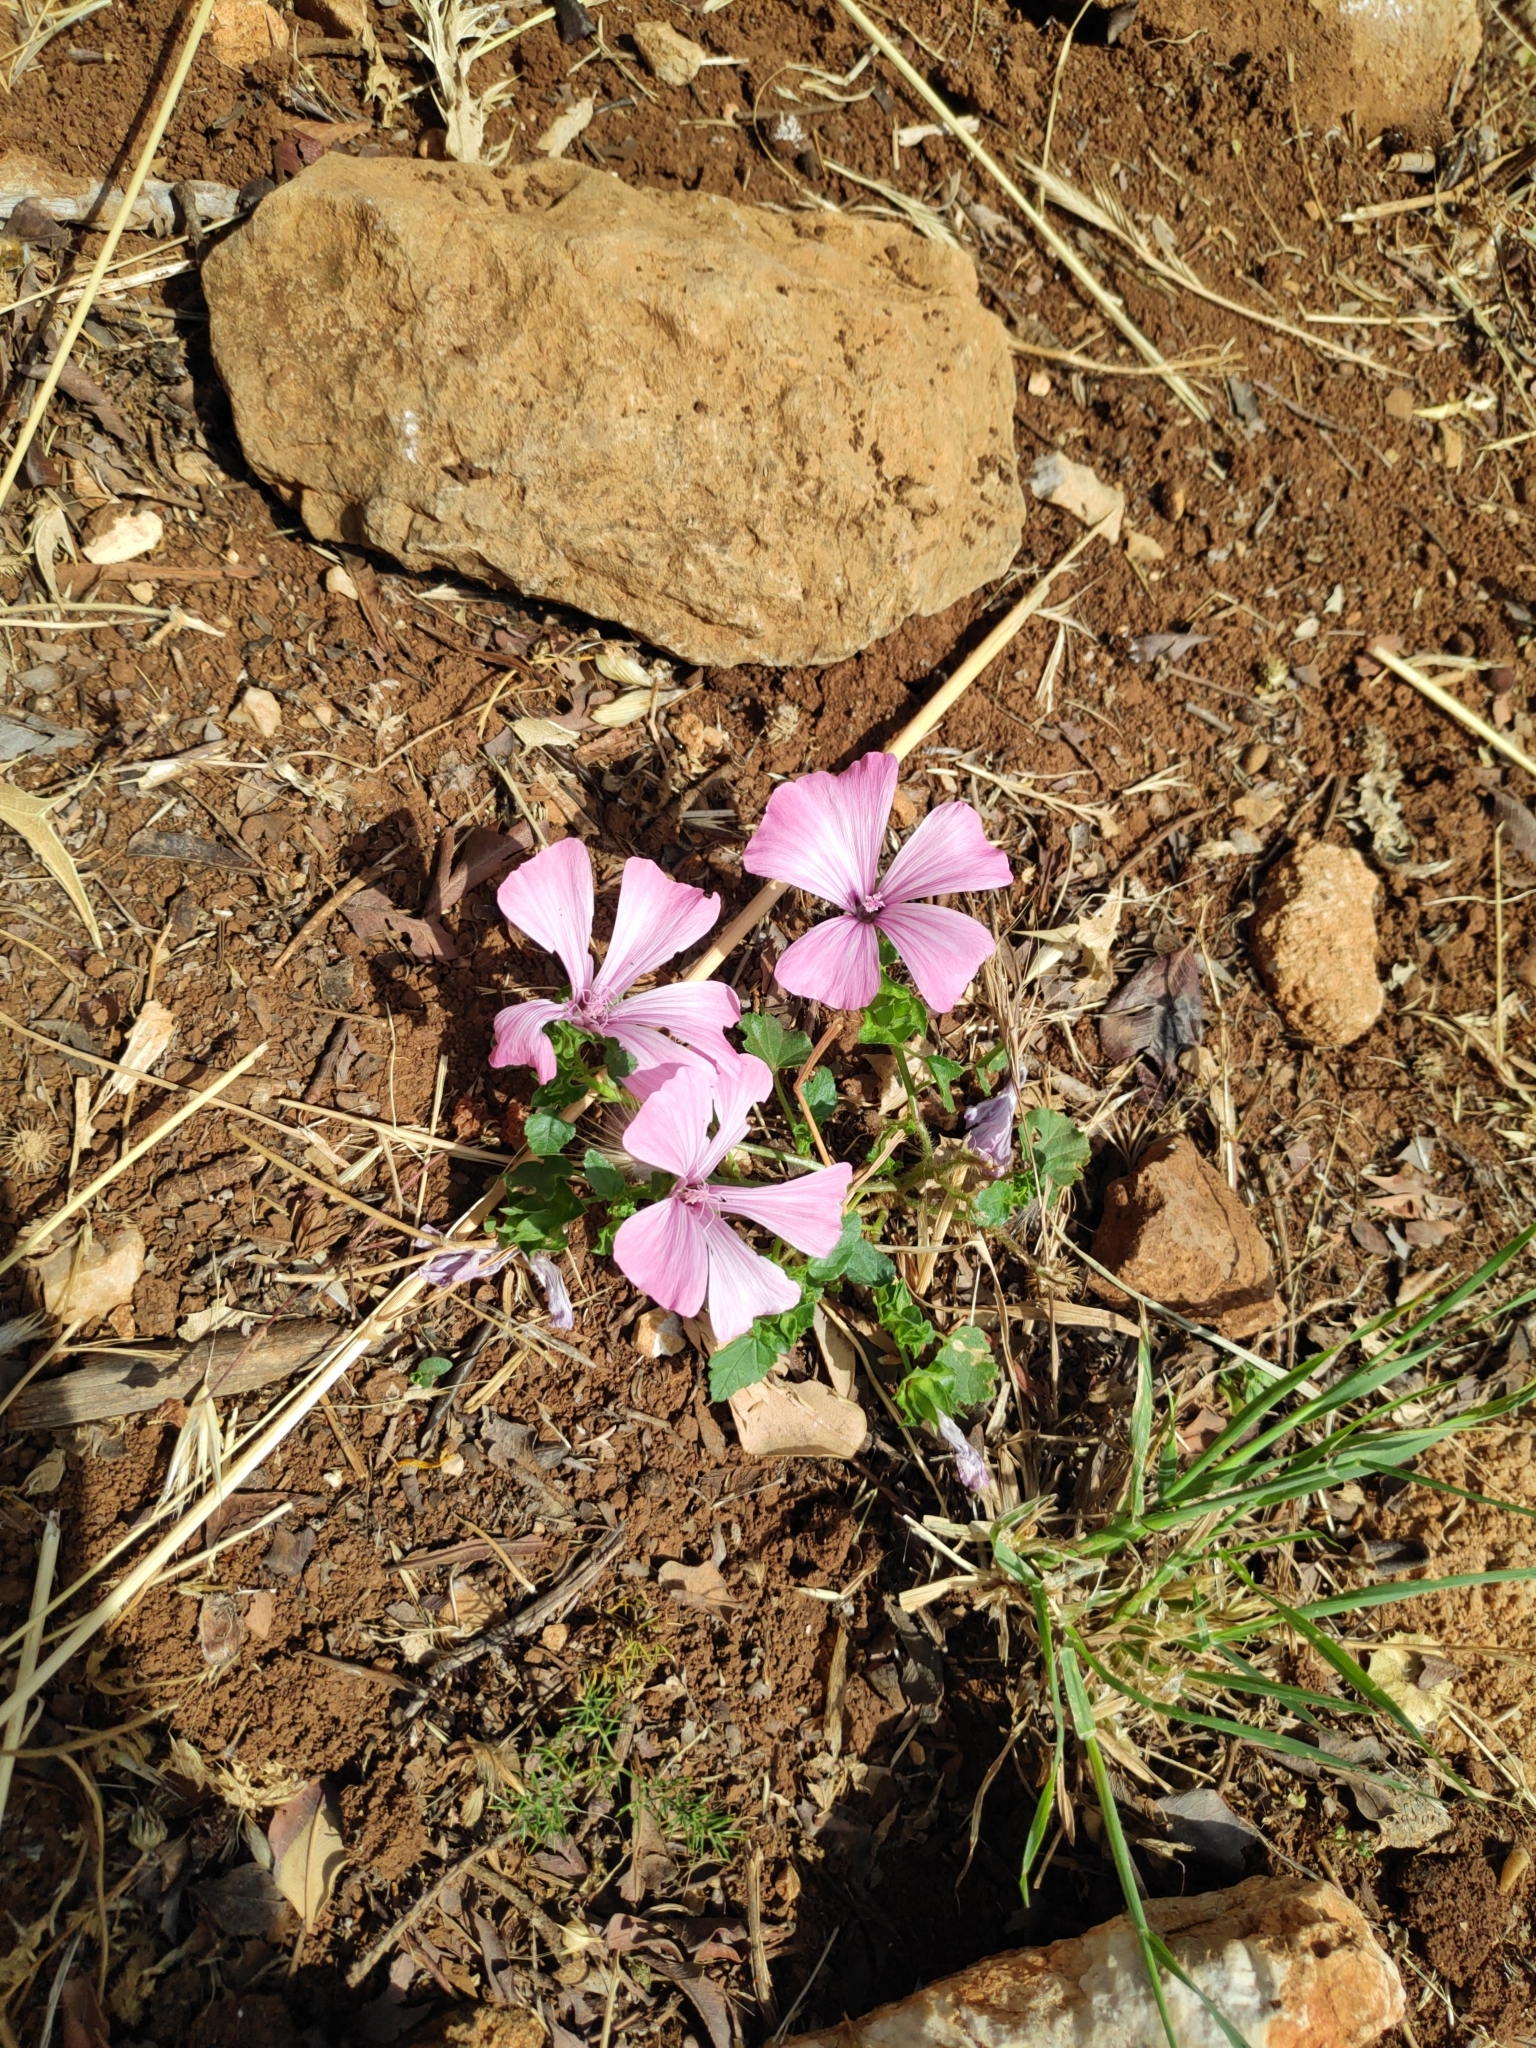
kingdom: Plantae
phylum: Tracheophyta
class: Magnoliopsida
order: Malvales
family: Malvaceae
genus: Malva
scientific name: Malva trimestris
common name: Royal mallow
